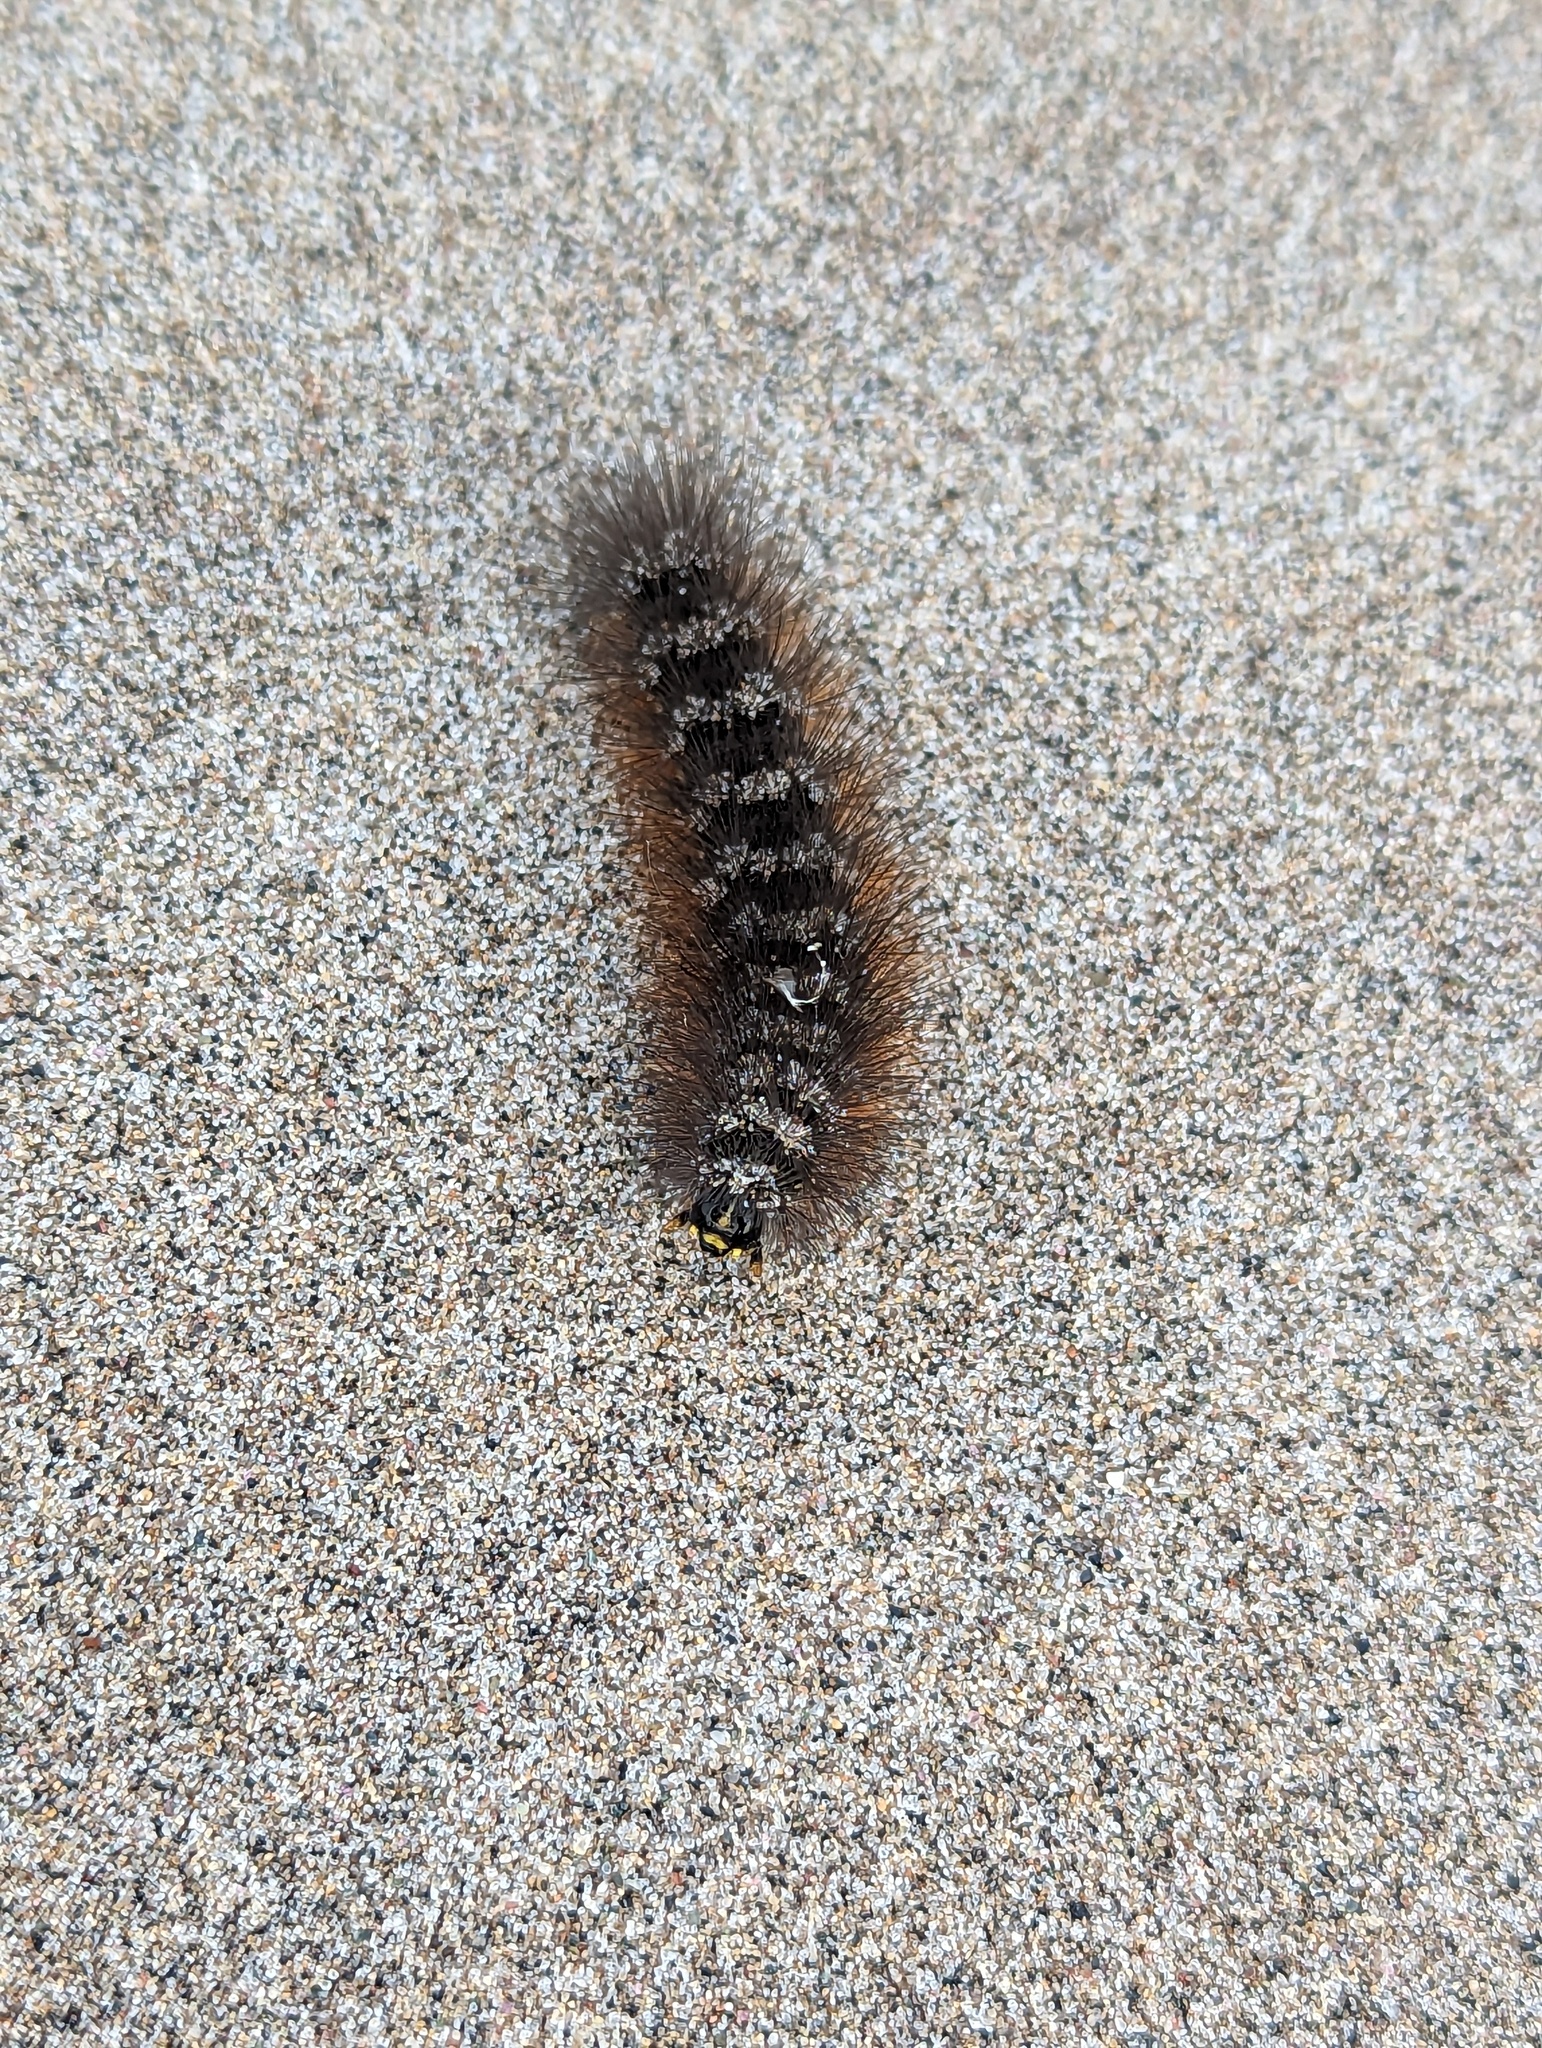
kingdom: Animalia
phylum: Arthropoda
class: Insecta
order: Lepidoptera
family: Erebidae
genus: Estigmene
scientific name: Estigmene acrea
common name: Salt marsh moth
